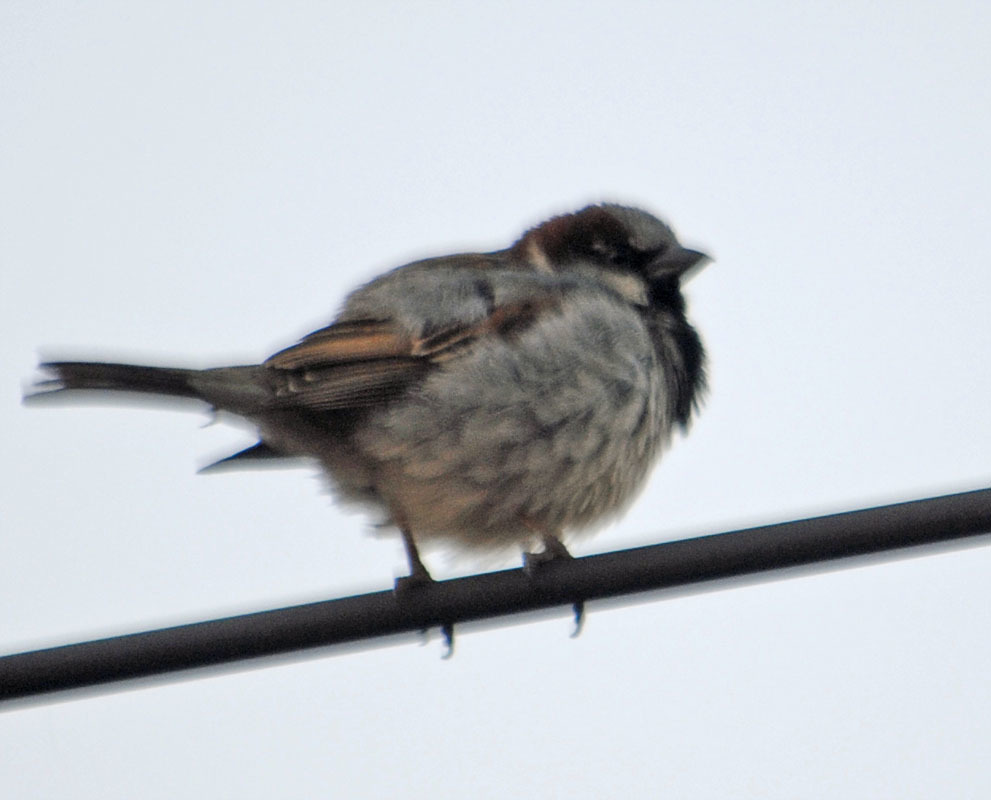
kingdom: Animalia
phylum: Chordata
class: Aves
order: Passeriformes
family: Passeridae
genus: Passer
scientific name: Passer domesticus
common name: House sparrow
